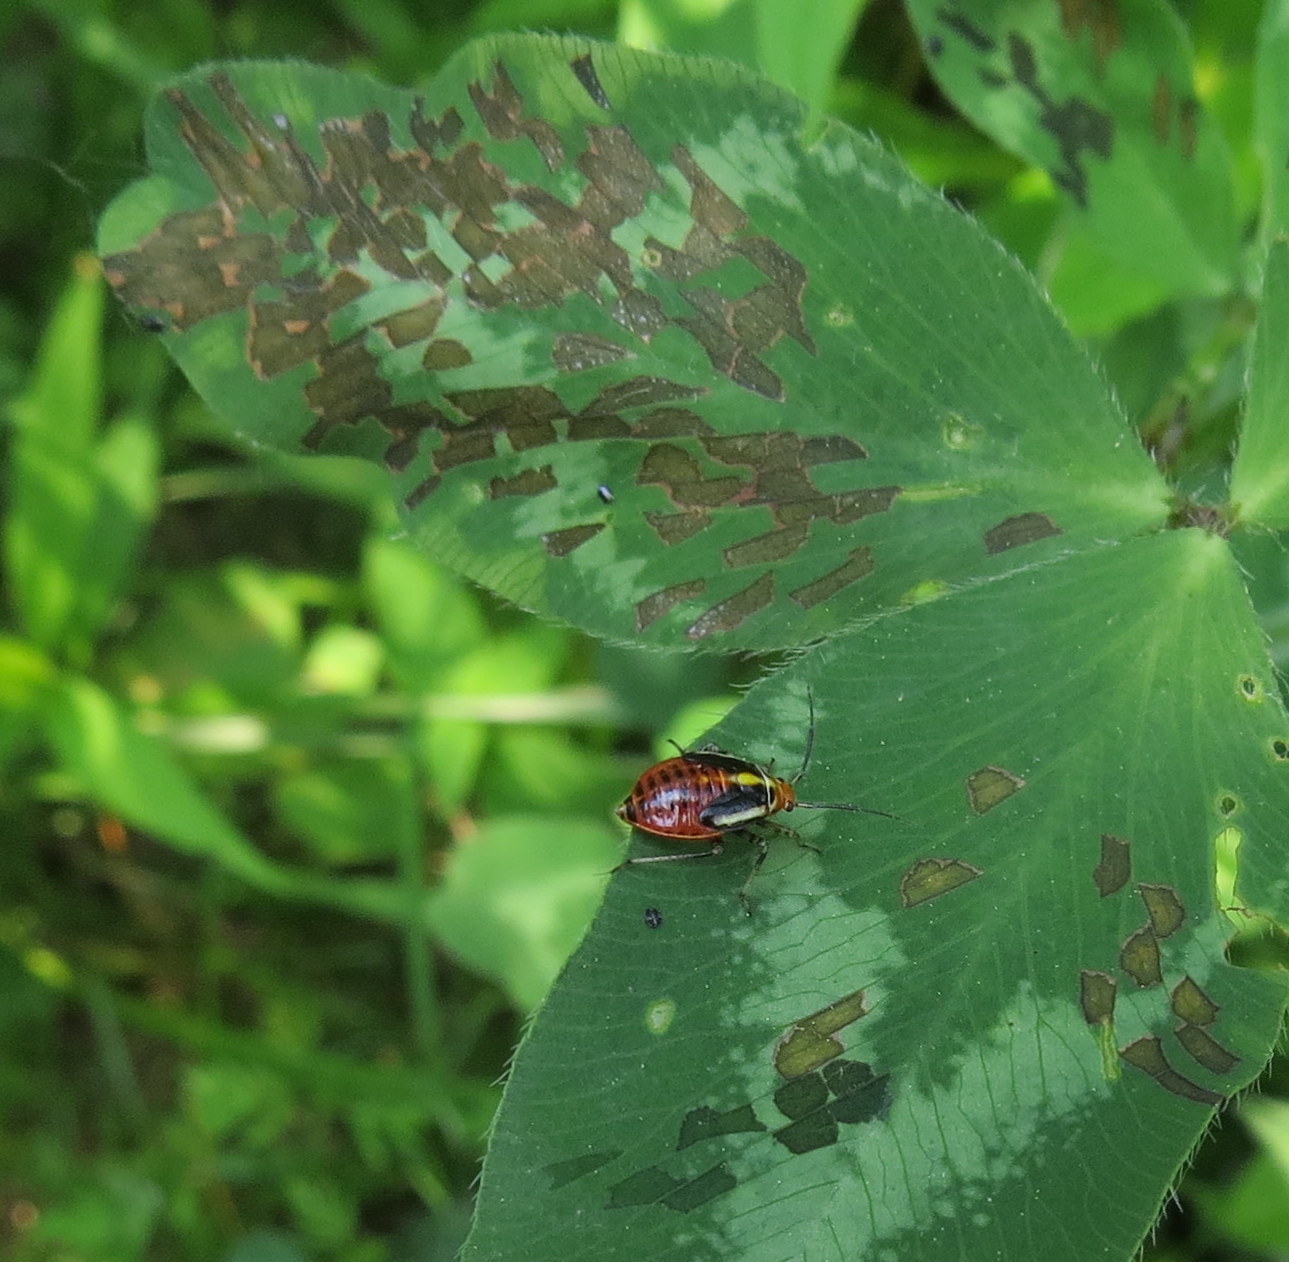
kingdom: Animalia
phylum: Arthropoda
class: Insecta
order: Hemiptera
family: Miridae
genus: Poecilocapsus
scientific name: Poecilocapsus lineatus
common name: Four-lined plant bug
